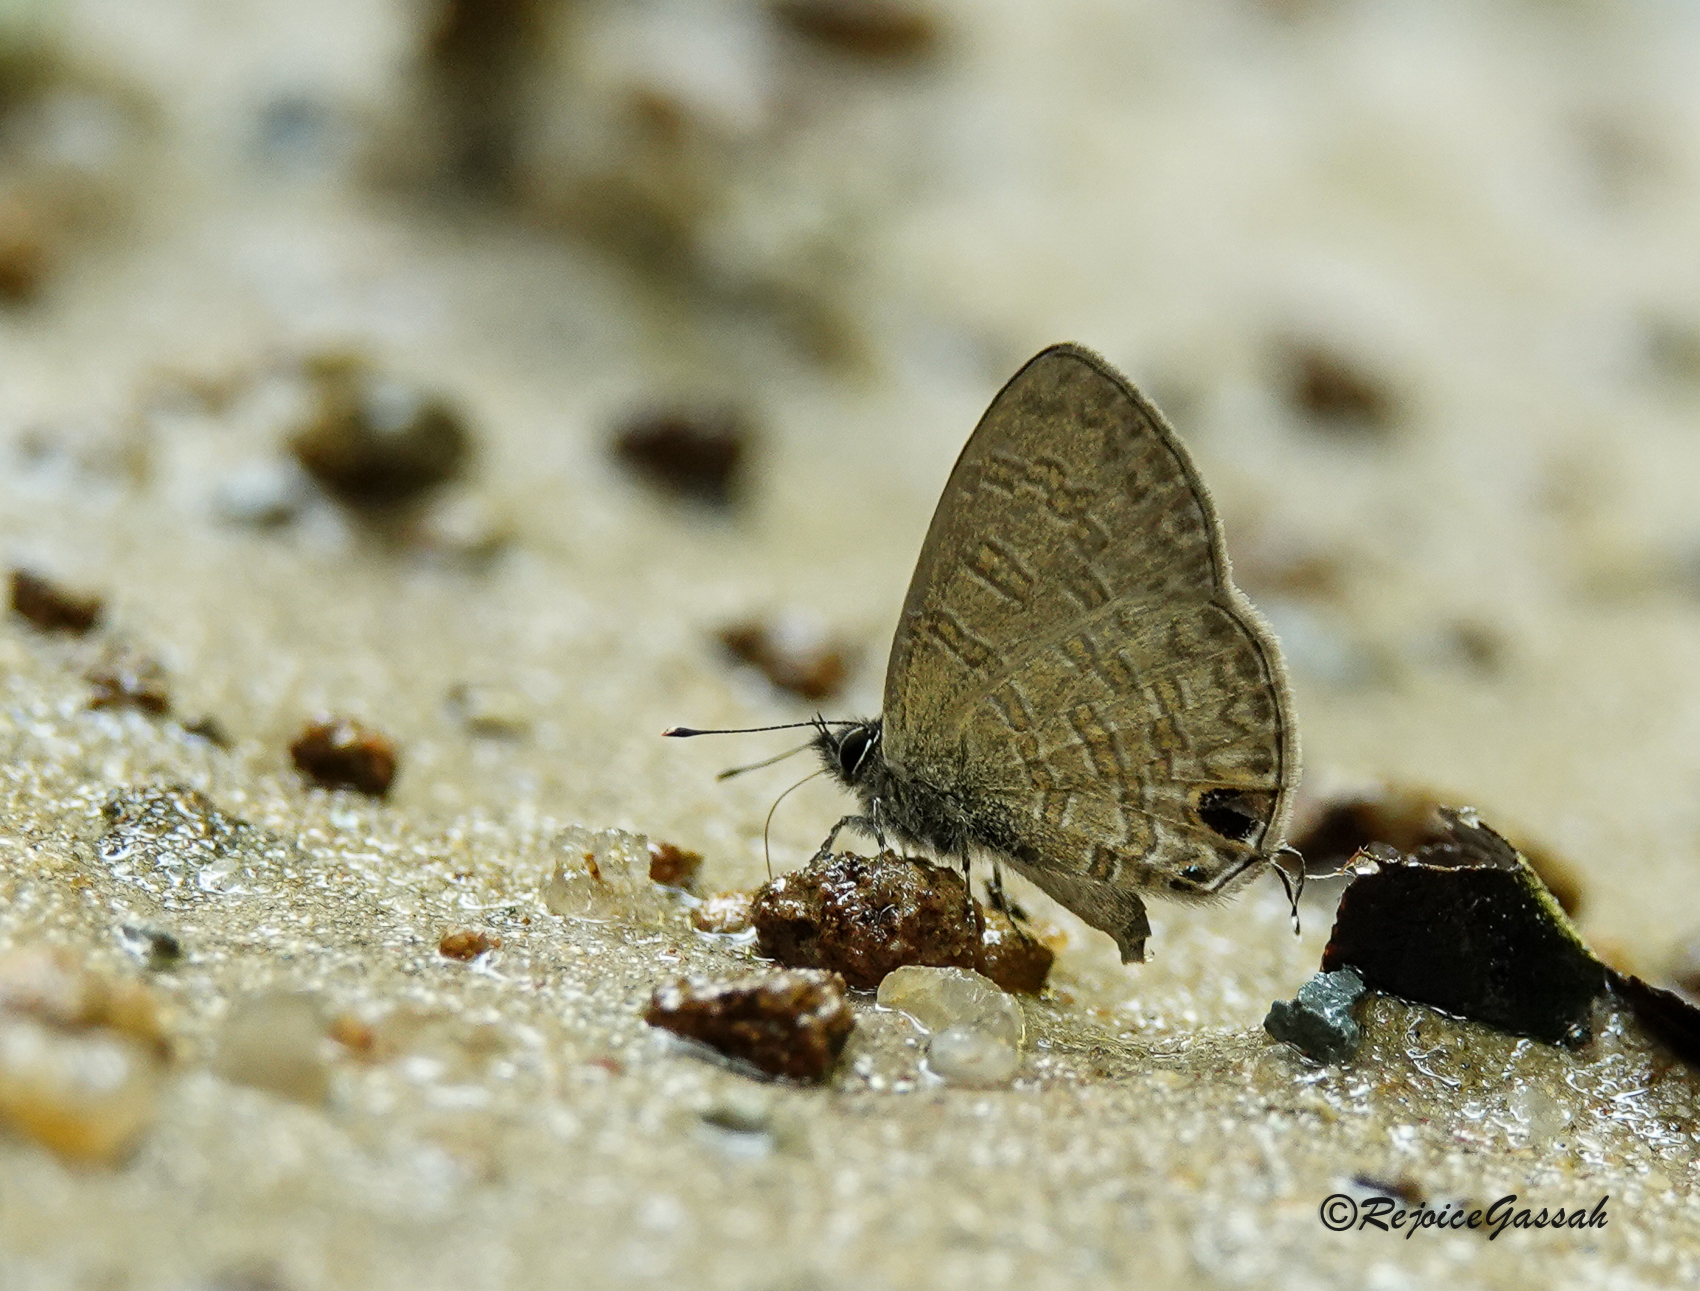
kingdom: Animalia
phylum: Arthropoda
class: Insecta
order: Lepidoptera
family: Lycaenidae
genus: Prosotas
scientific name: Prosotas nora
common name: Common line blue
